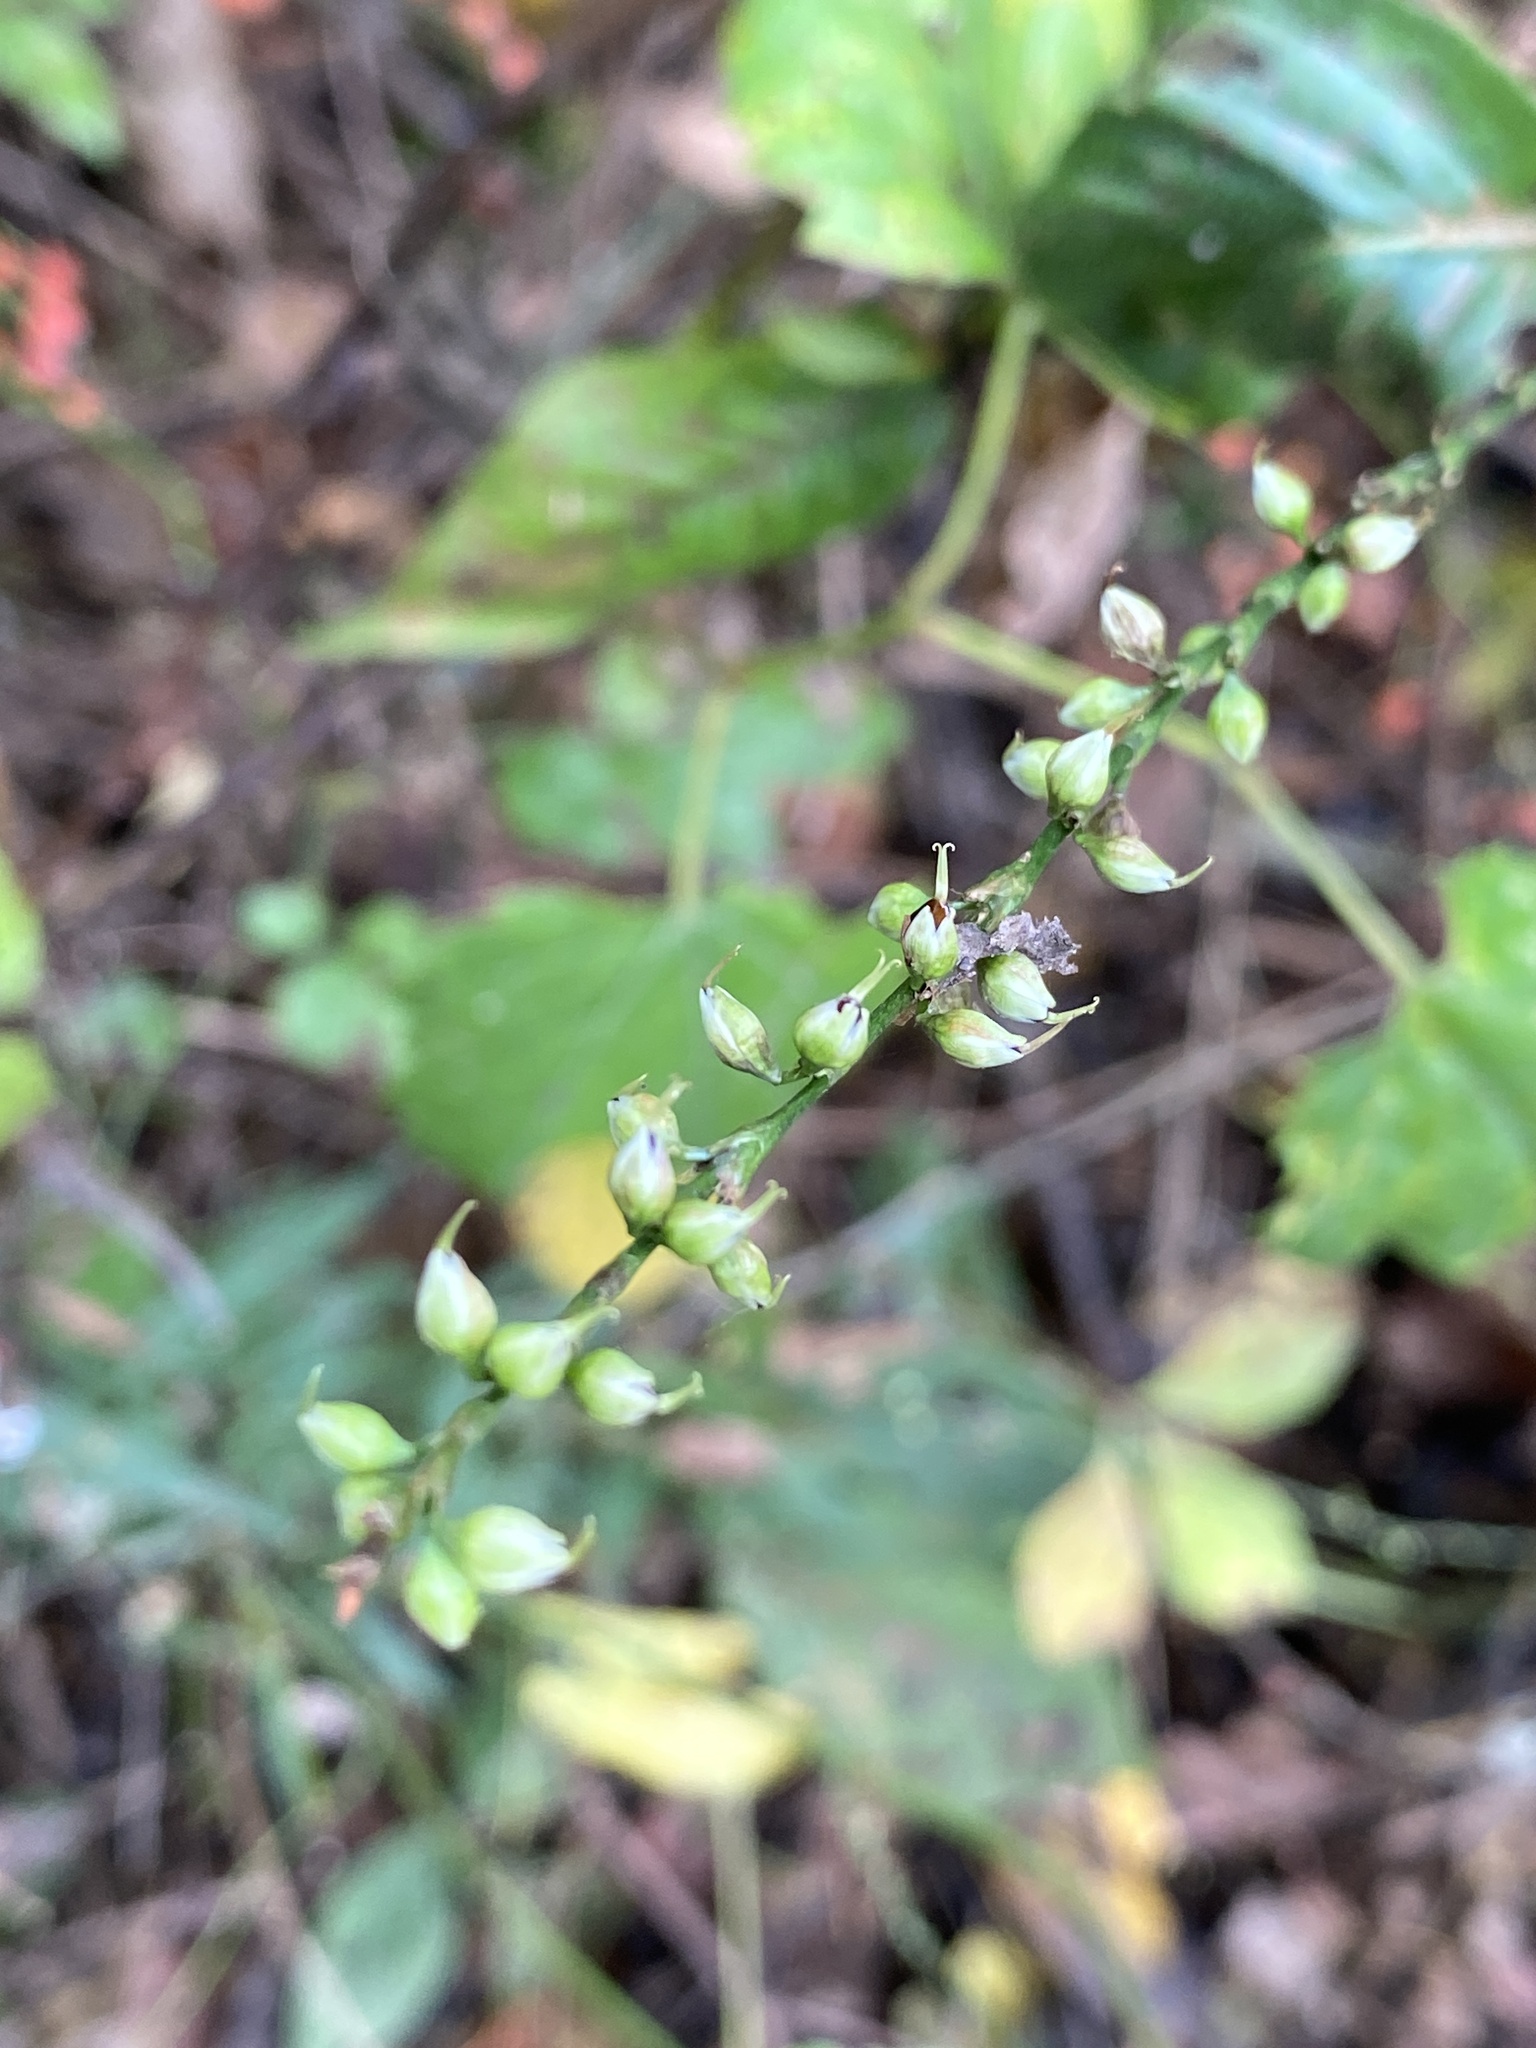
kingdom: Plantae
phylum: Tracheophyta
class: Magnoliopsida
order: Caryophyllales
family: Polygonaceae
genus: Persicaria
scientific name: Persicaria virginiana
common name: Jumpseed
